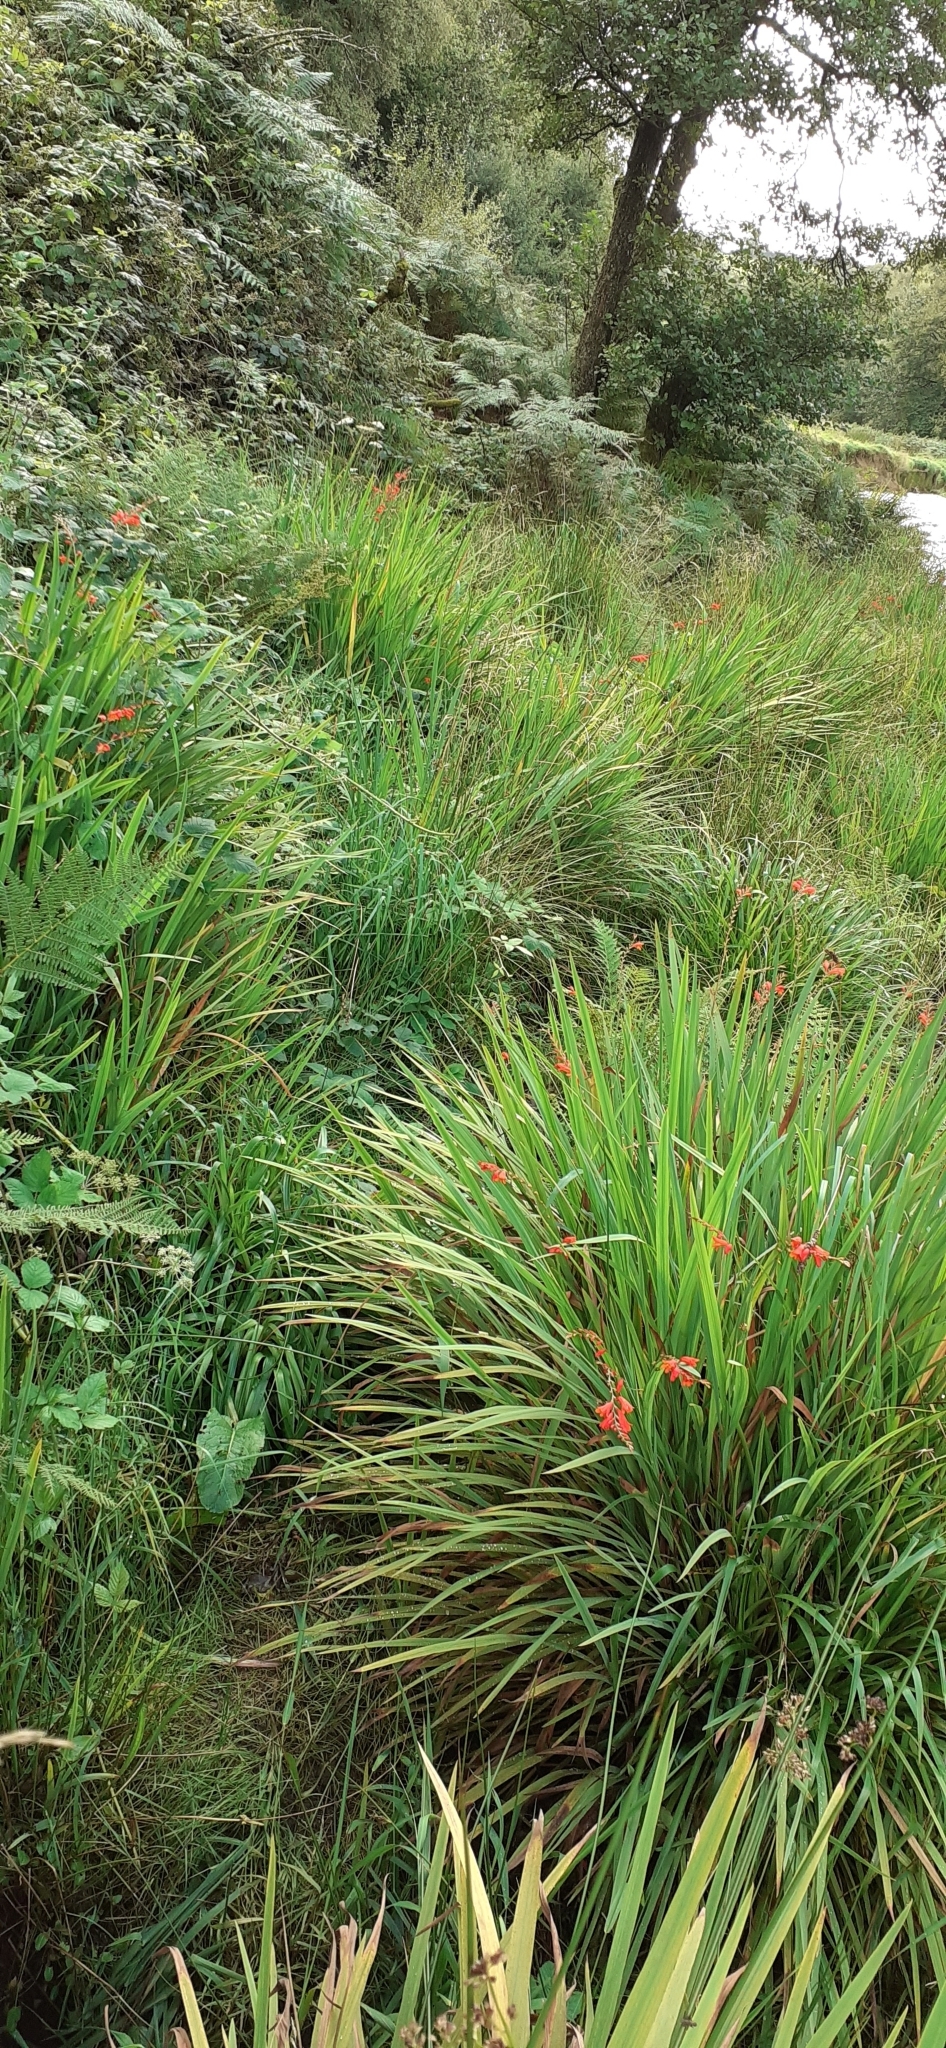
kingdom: Plantae
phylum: Tracheophyta
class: Liliopsida
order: Asparagales
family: Iridaceae
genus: Crocosmia
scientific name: Crocosmia crocosmiiflora
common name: Montbretia
